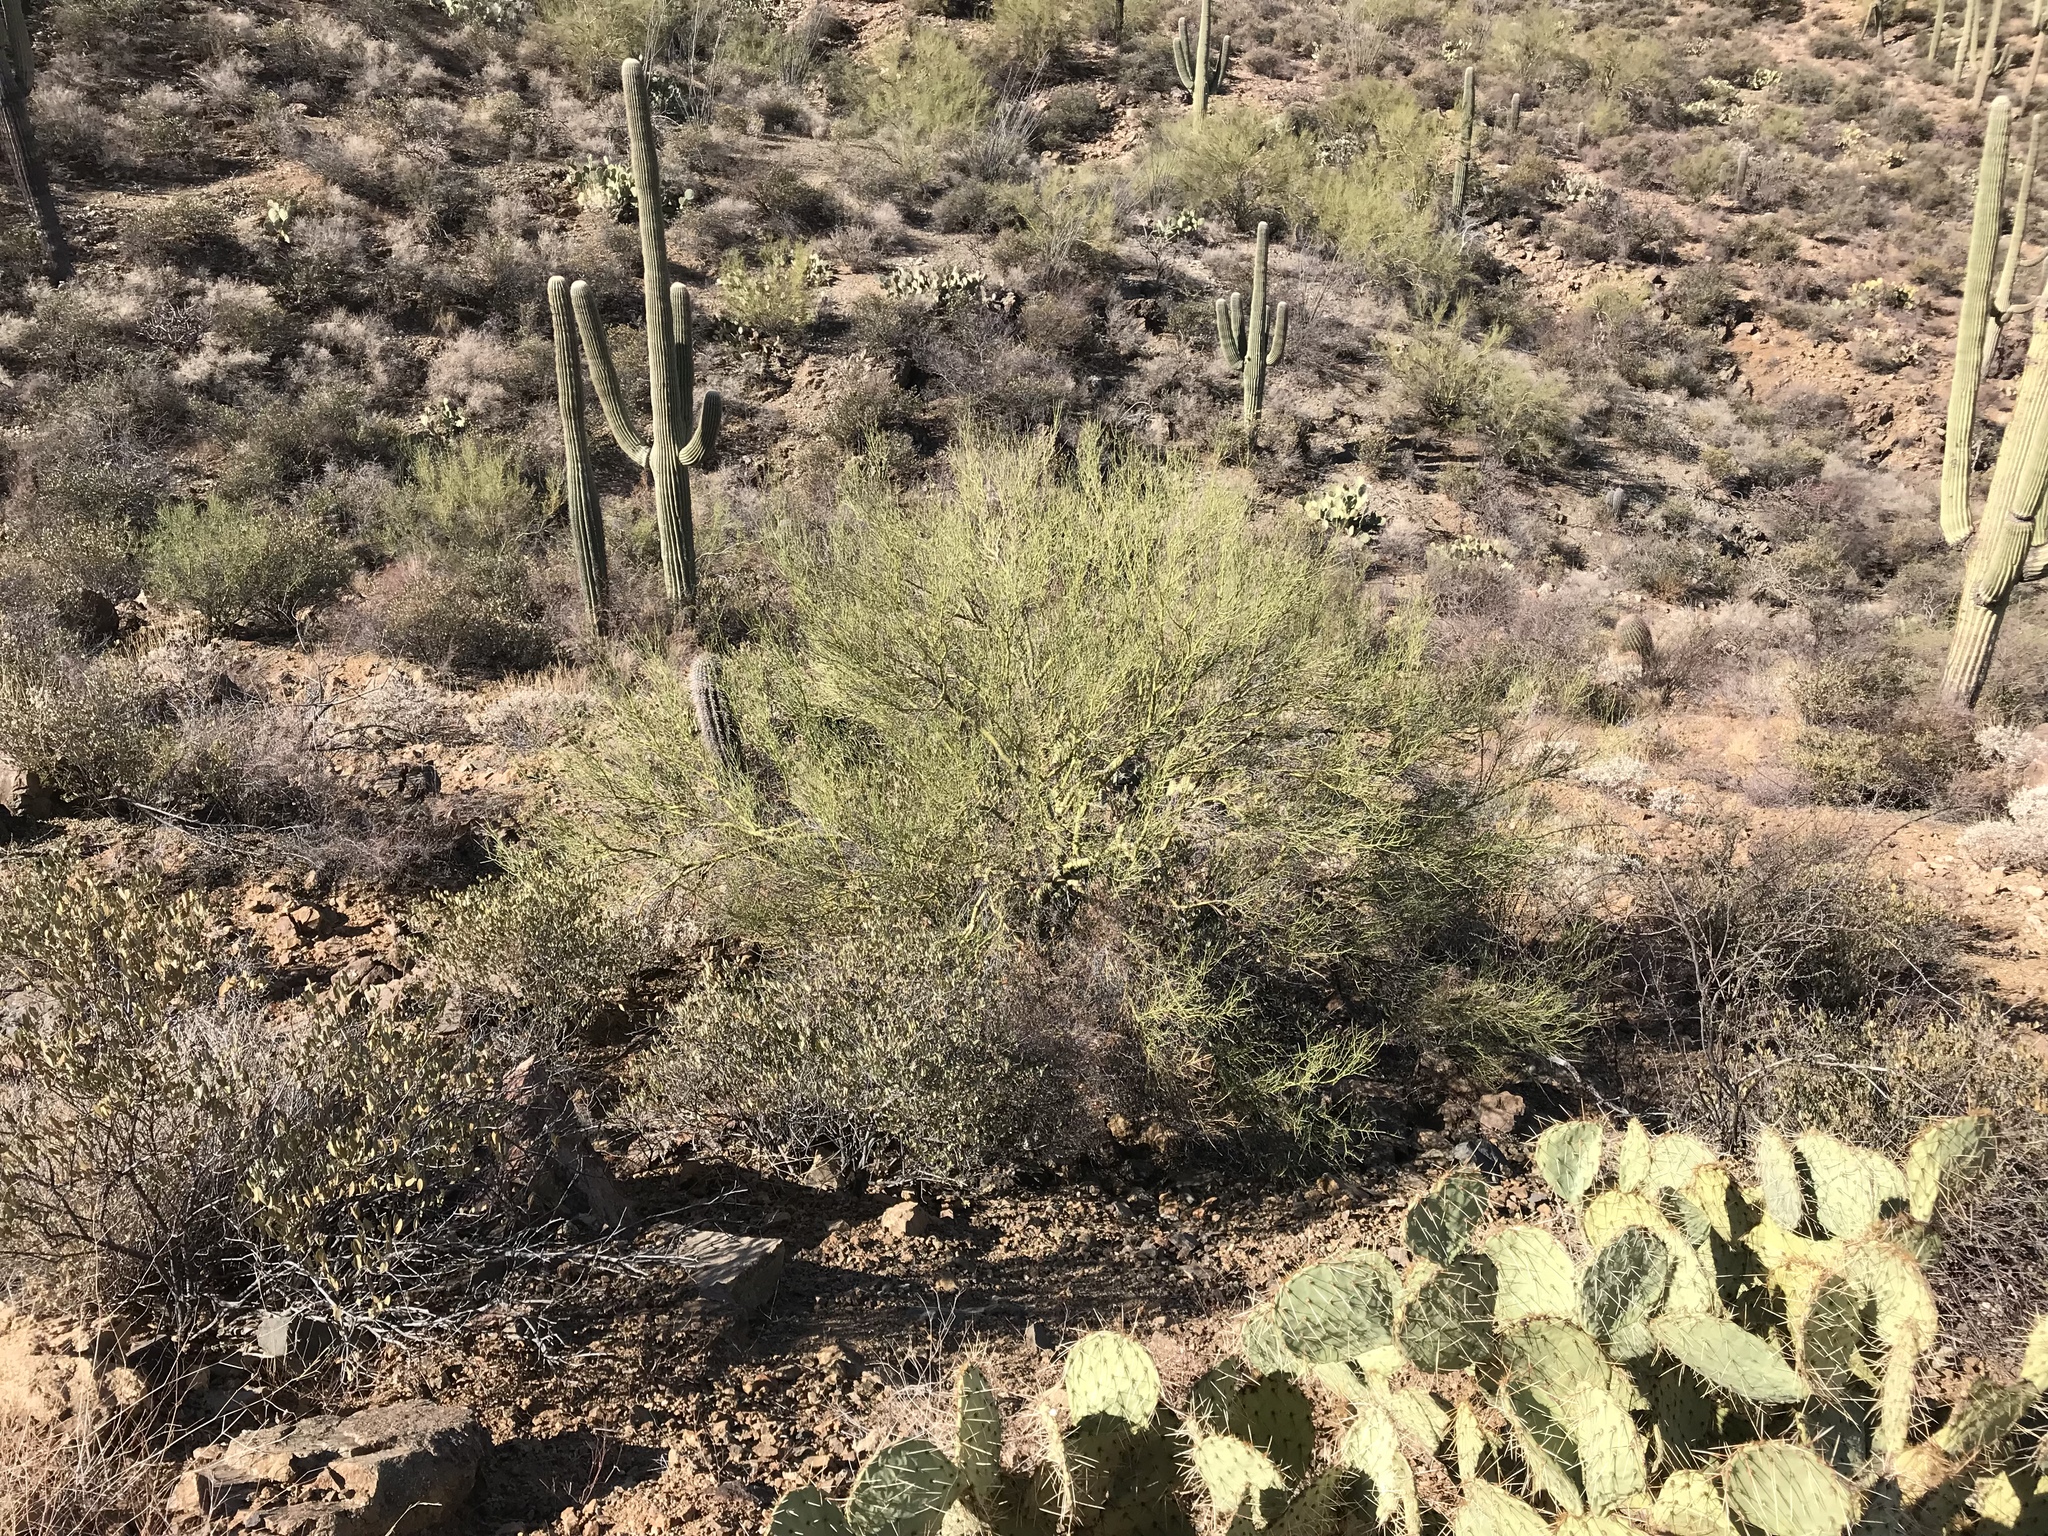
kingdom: Plantae
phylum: Tracheophyta
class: Magnoliopsida
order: Fabales
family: Fabaceae
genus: Parkinsonia
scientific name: Parkinsonia microphylla
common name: Yellow paloverde
